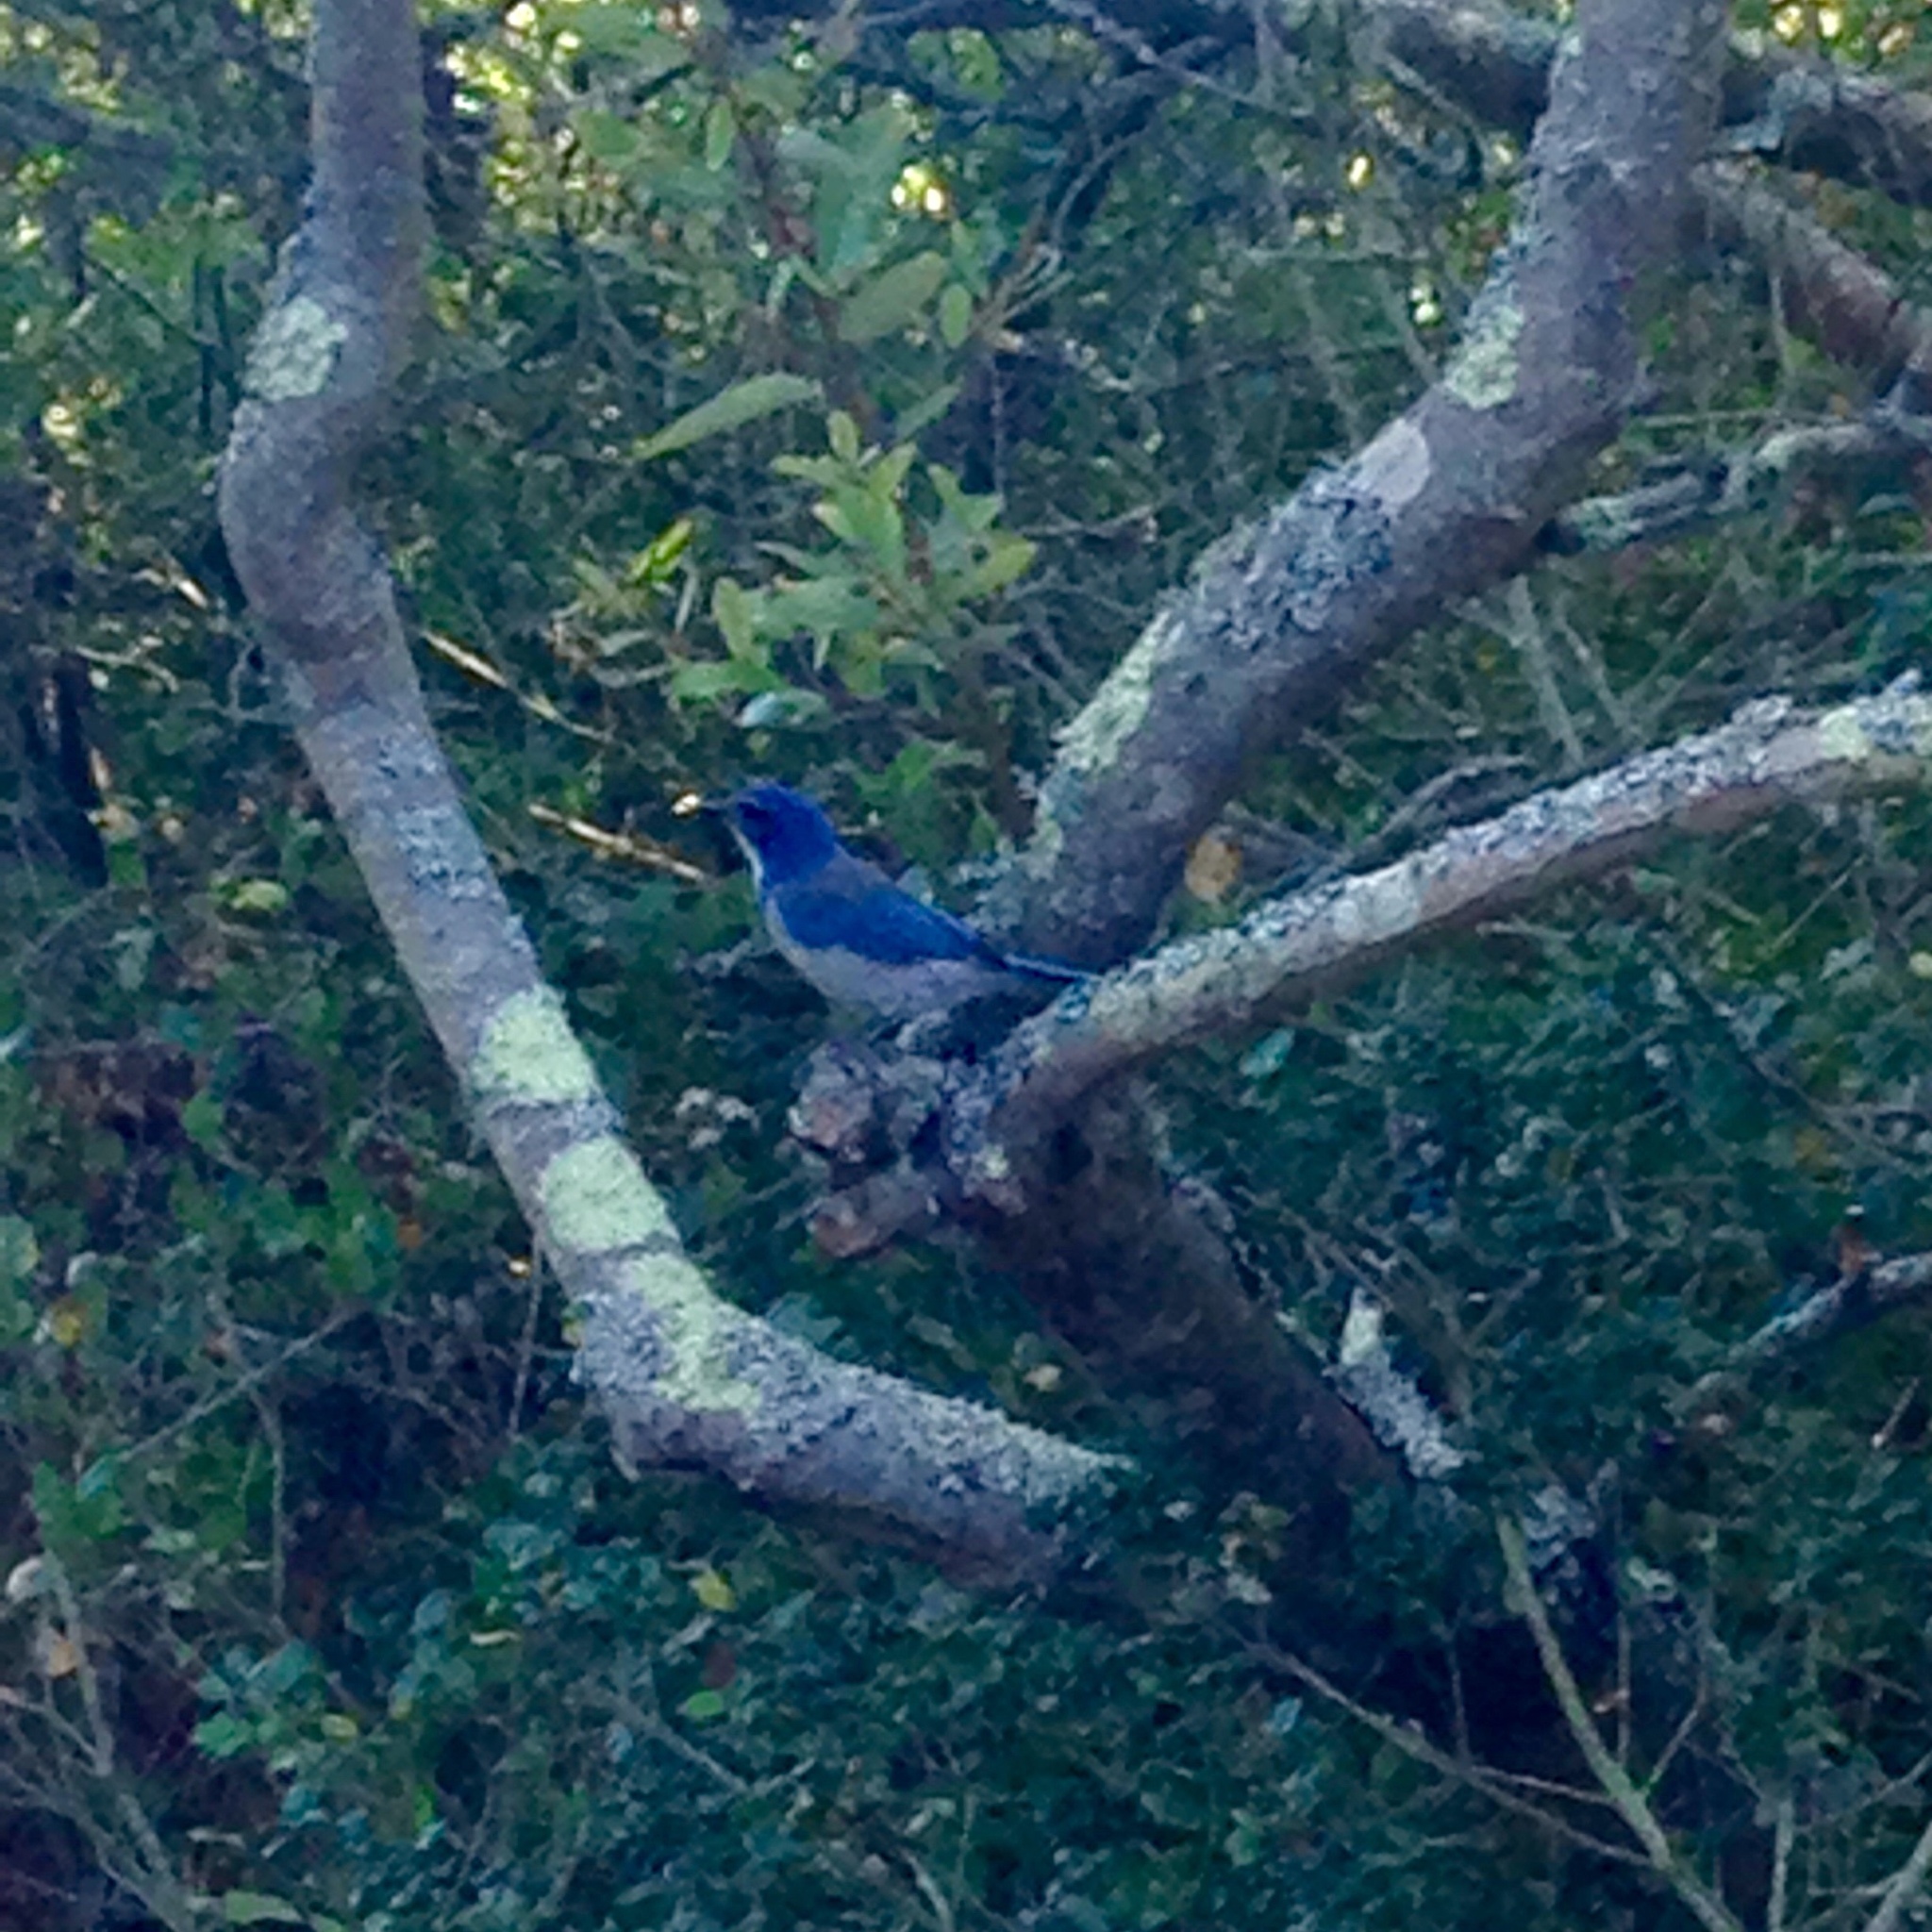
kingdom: Animalia
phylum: Chordata
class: Aves
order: Passeriformes
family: Corvidae
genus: Aphelocoma
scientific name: Aphelocoma californica
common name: California scrub-jay
